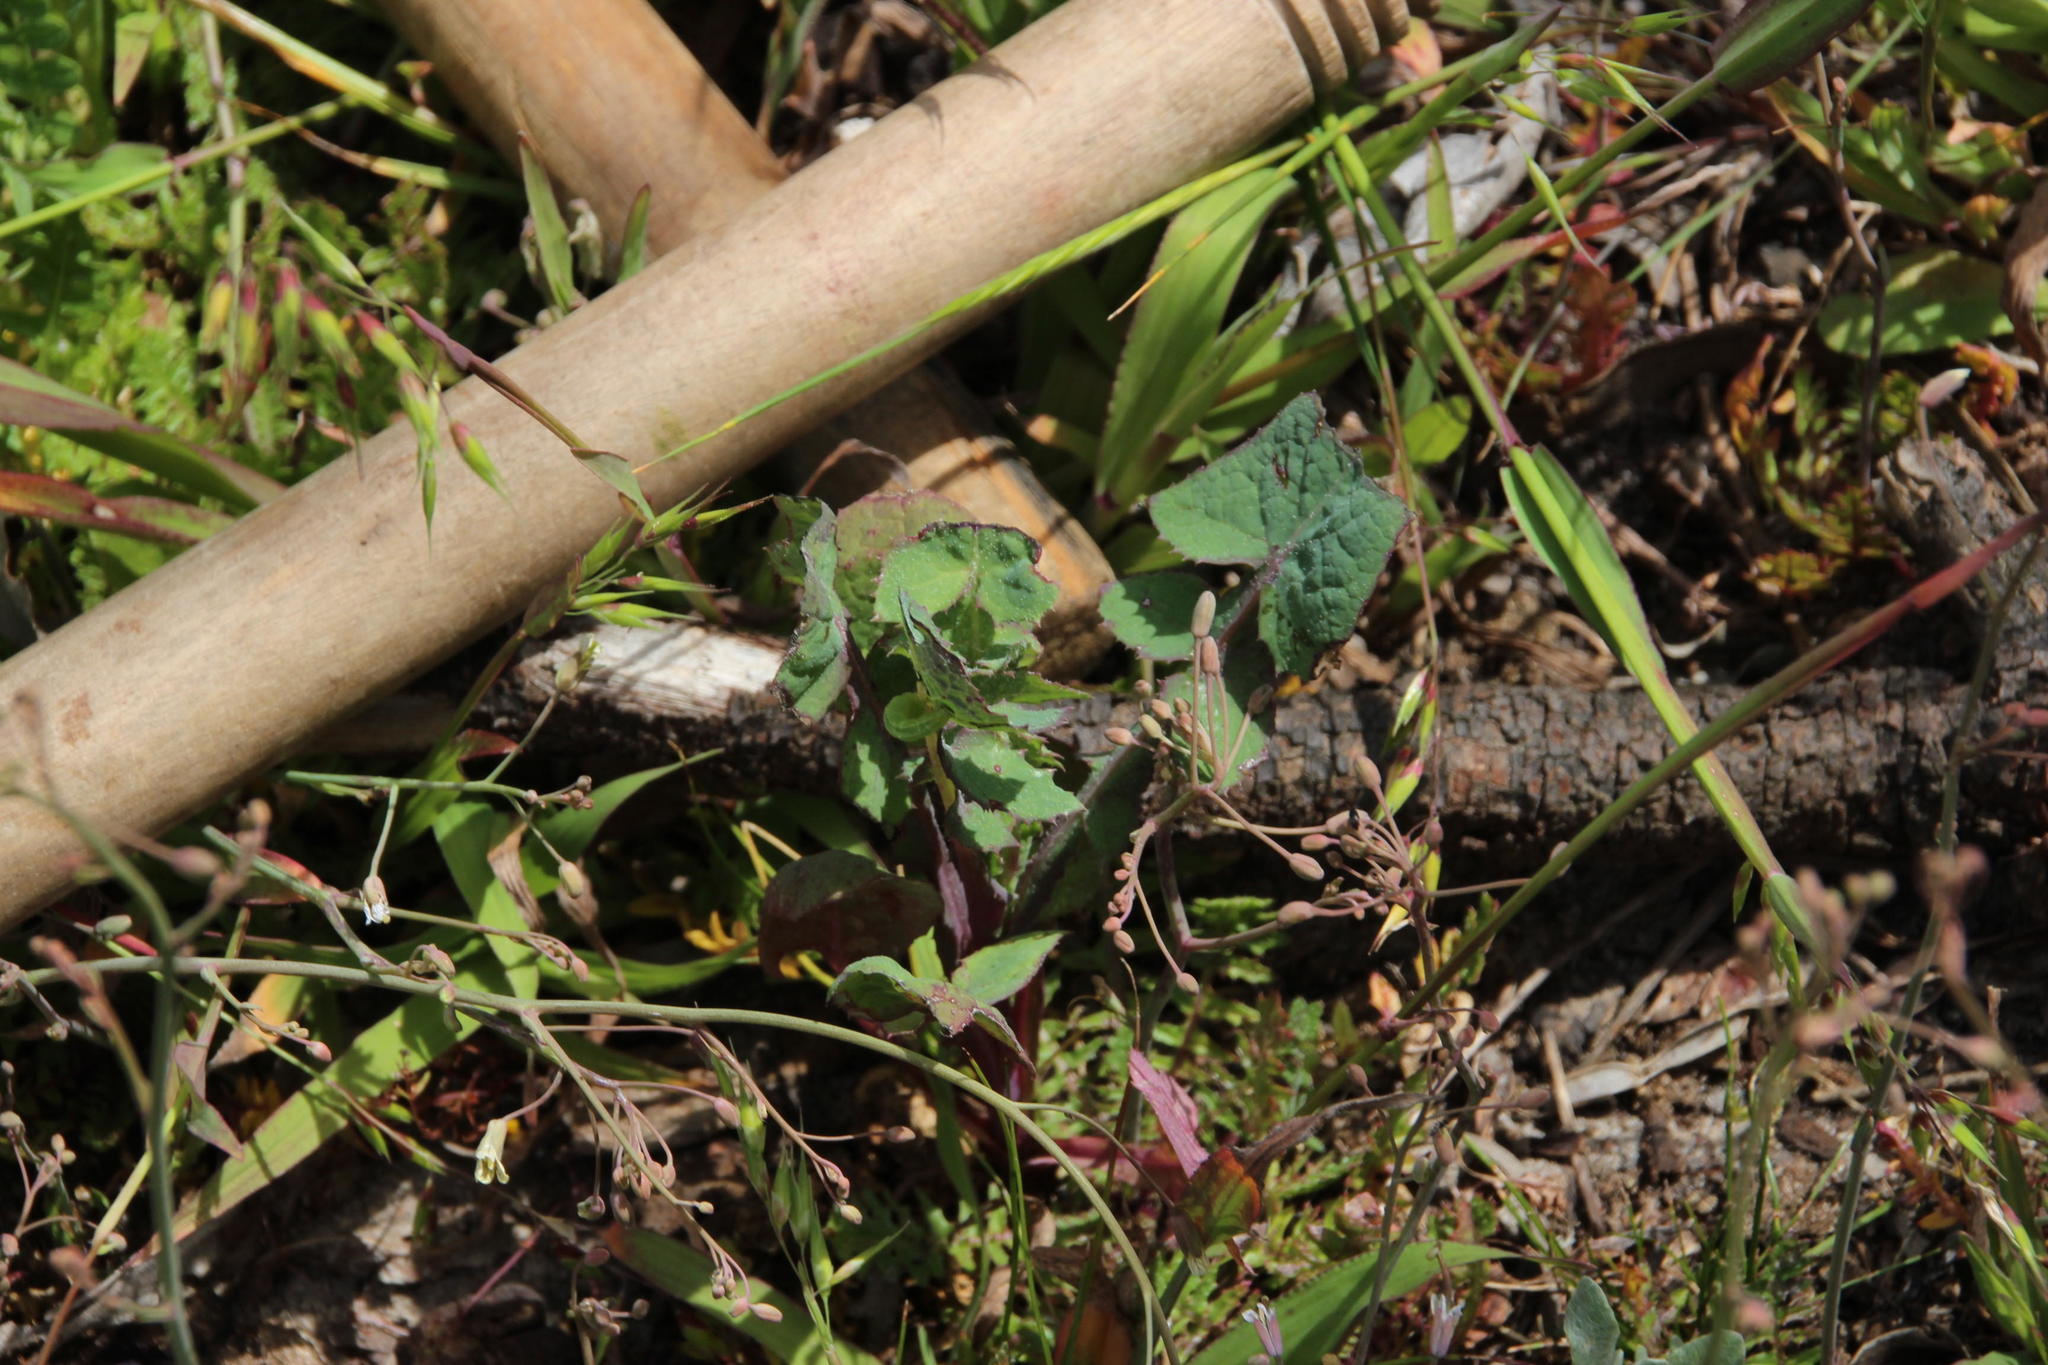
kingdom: Plantae
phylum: Tracheophyta
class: Magnoliopsida
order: Asterales
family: Asteraceae
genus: Sonchus
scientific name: Sonchus oleraceus
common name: Common sowthistle
